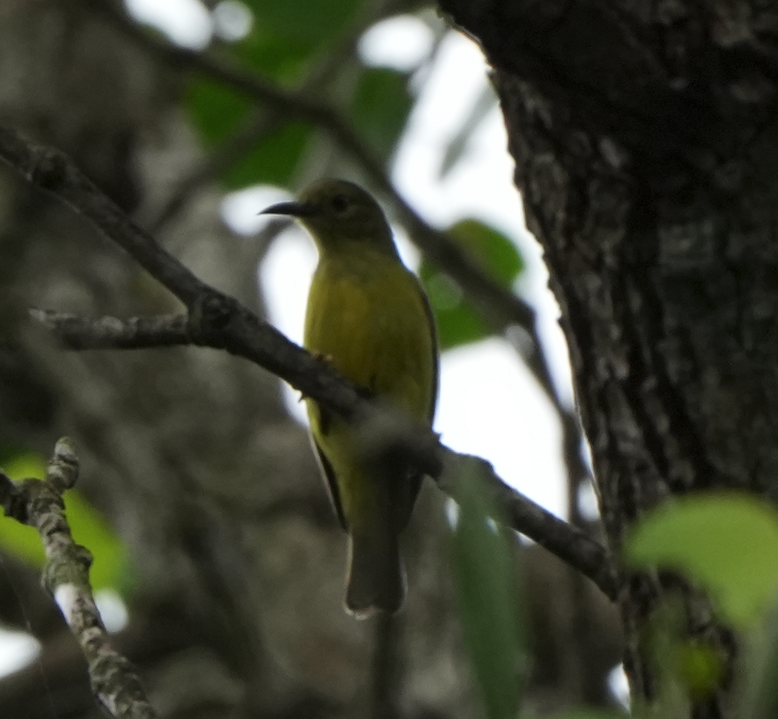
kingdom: Animalia
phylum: Chordata
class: Aves
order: Passeriformes
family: Nectariniidae
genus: Anthreptes
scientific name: Anthreptes malacensis
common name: Brown-throated sunbird
